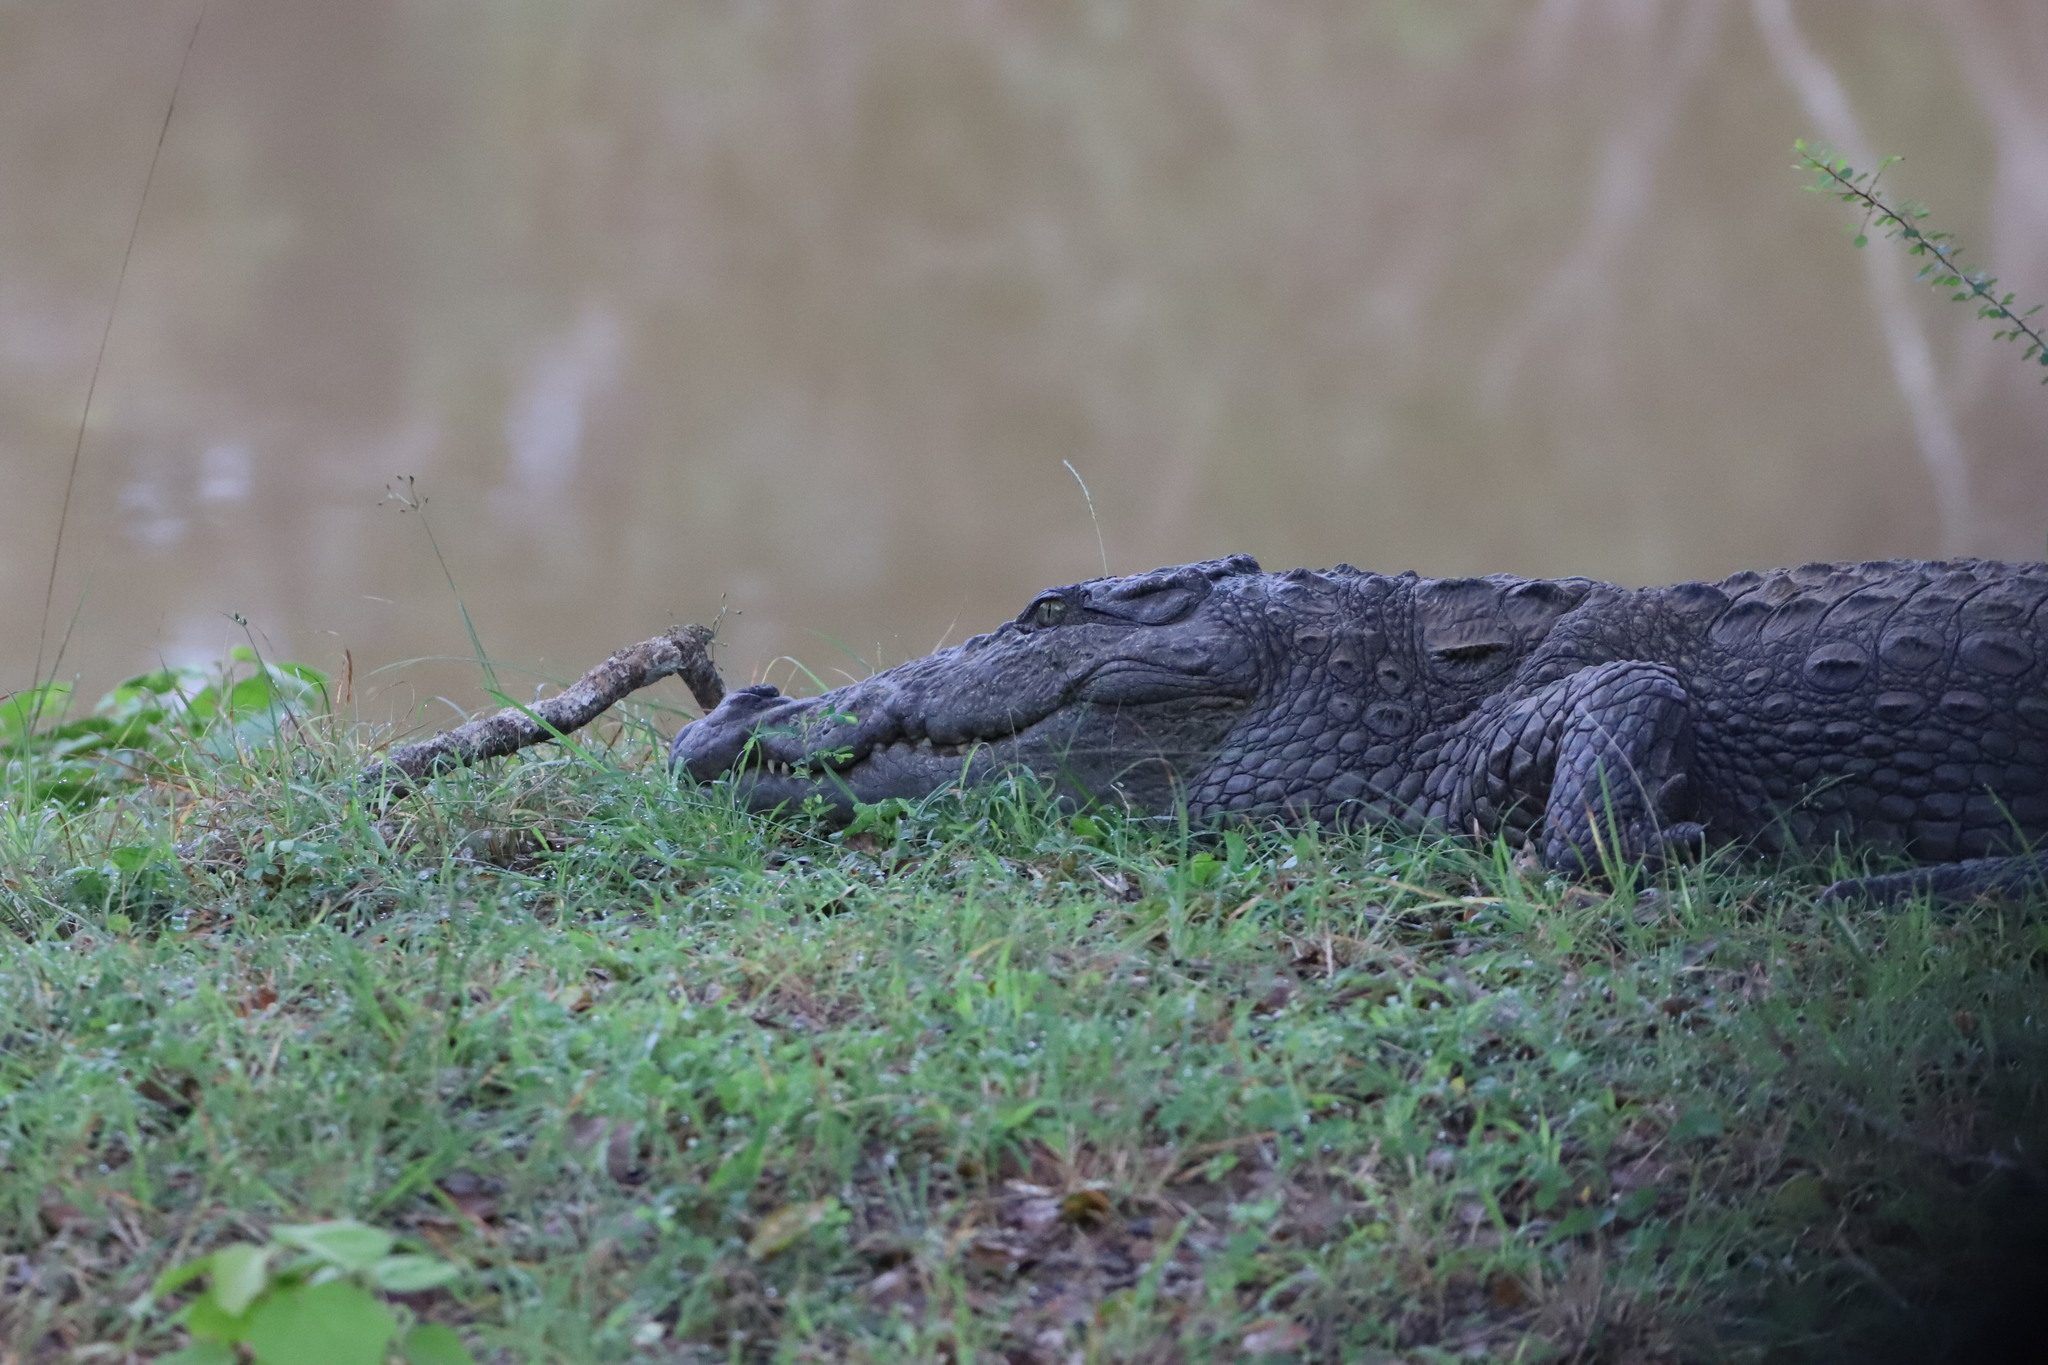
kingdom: Animalia
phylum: Chordata
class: Crocodylia
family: Crocodylidae
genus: Crocodylus
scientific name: Crocodylus palustris
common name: Mugger crocodile
